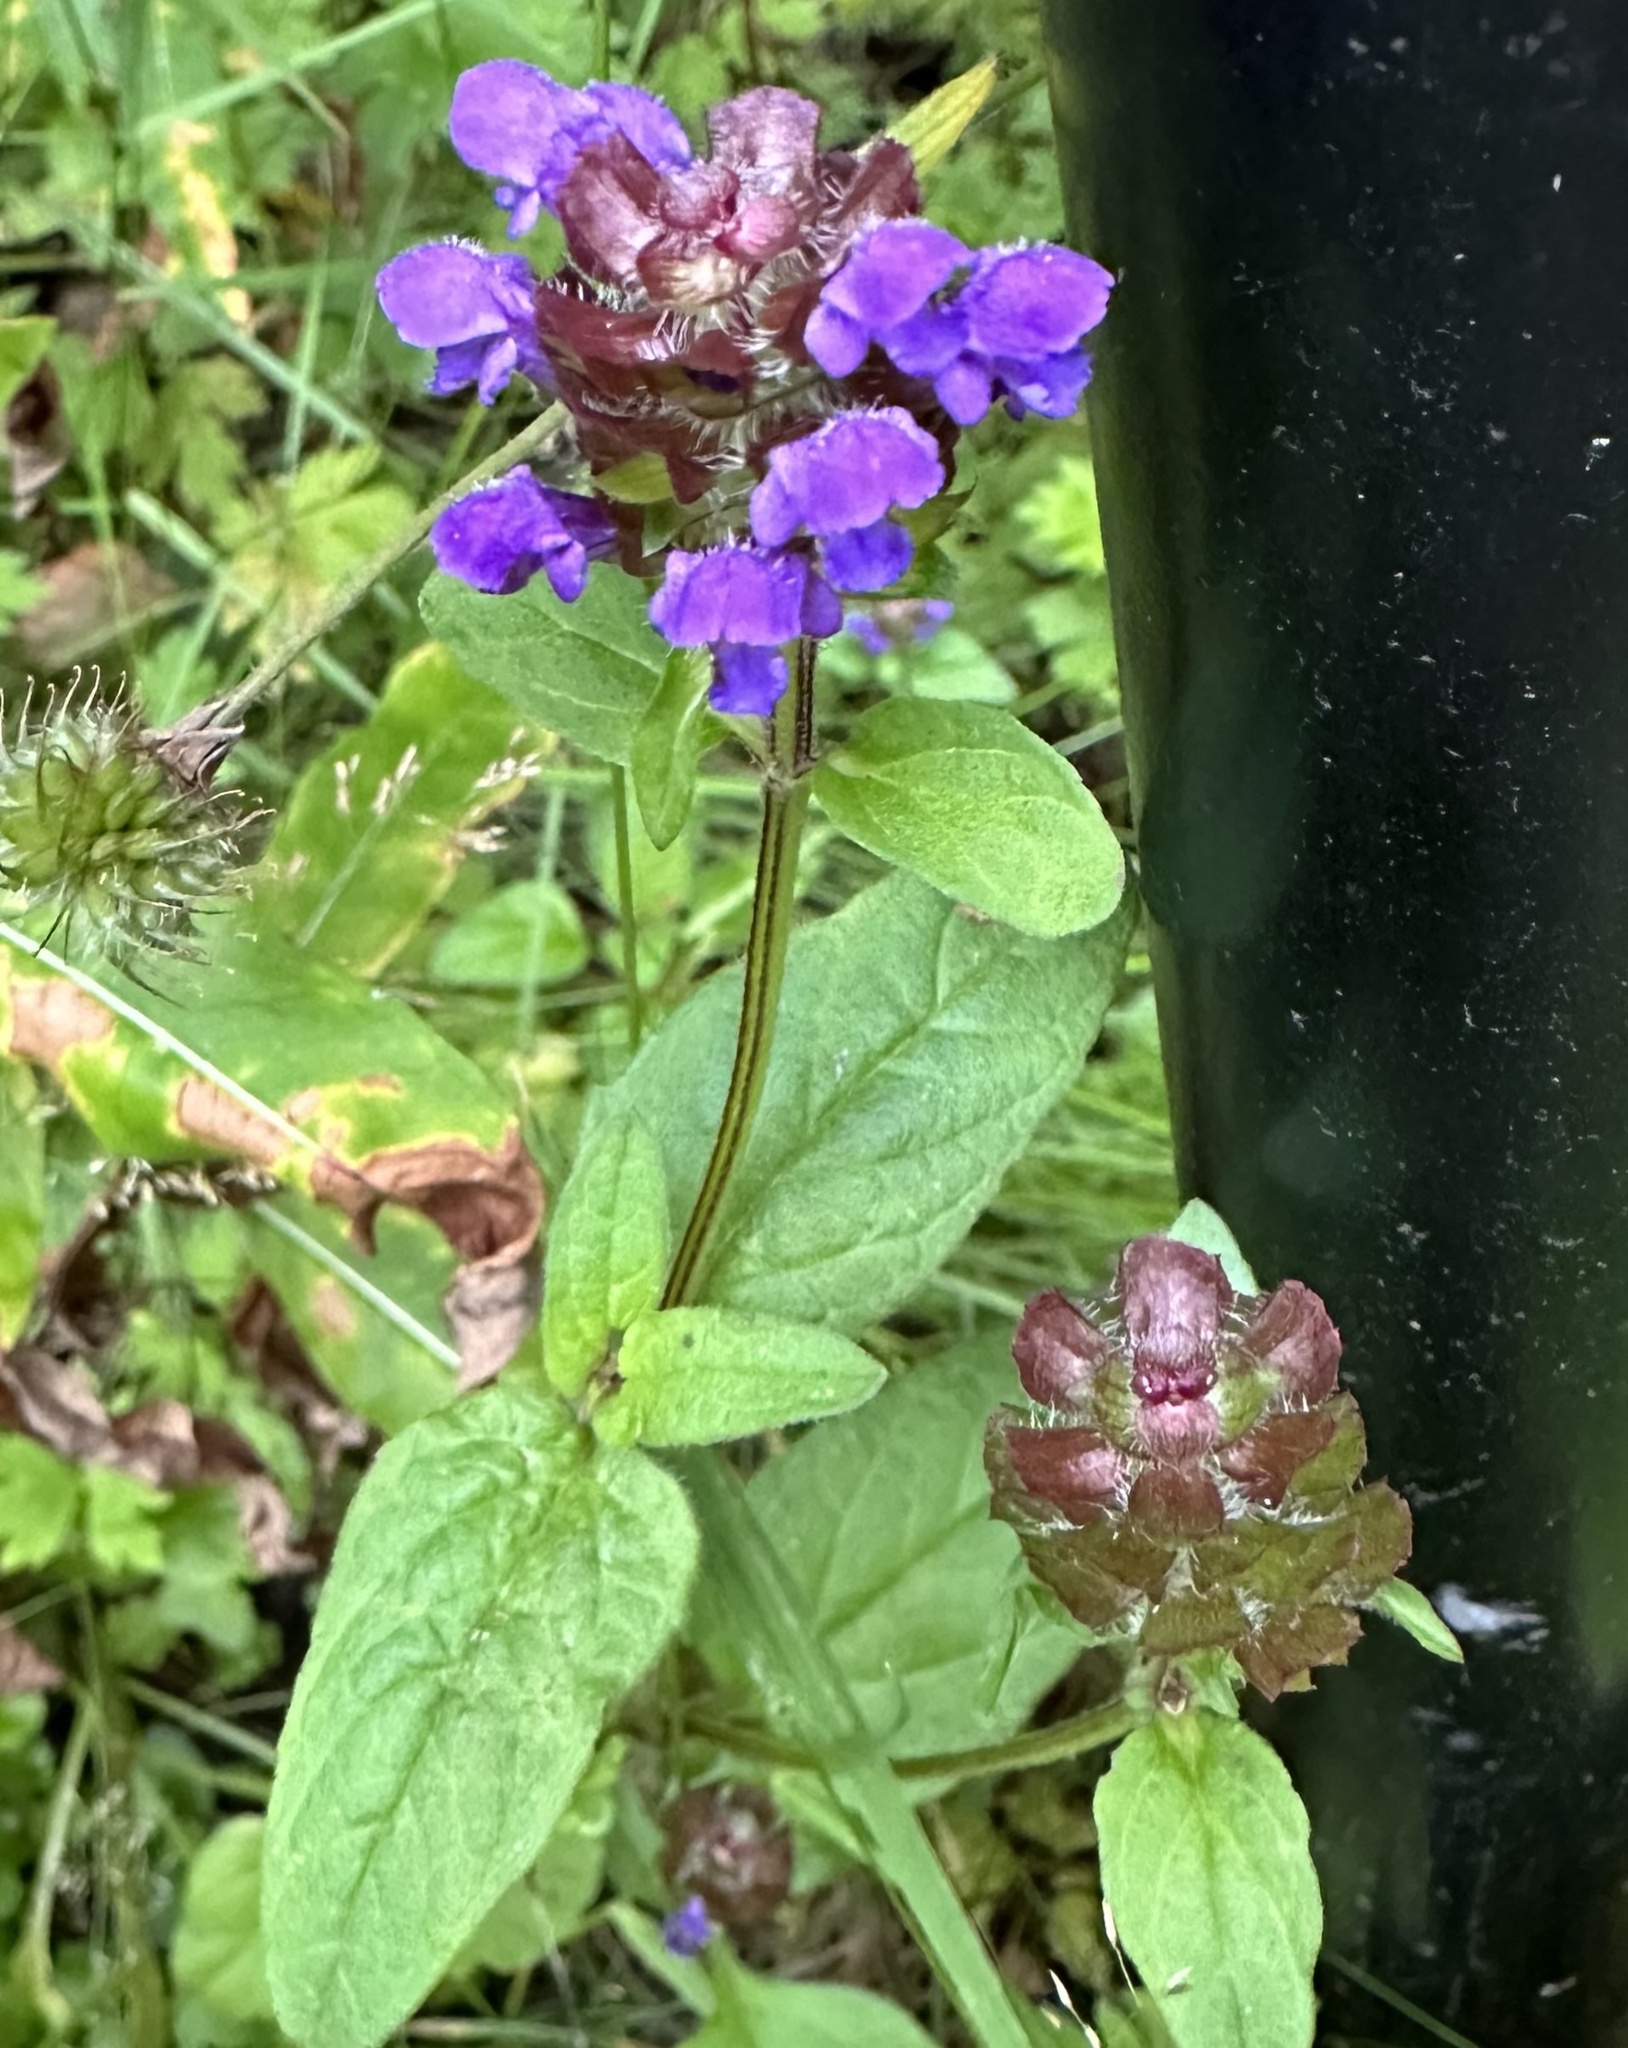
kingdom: Plantae
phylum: Tracheophyta
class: Magnoliopsida
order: Lamiales
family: Lamiaceae
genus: Prunella
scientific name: Prunella vulgaris
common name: Heal-all
